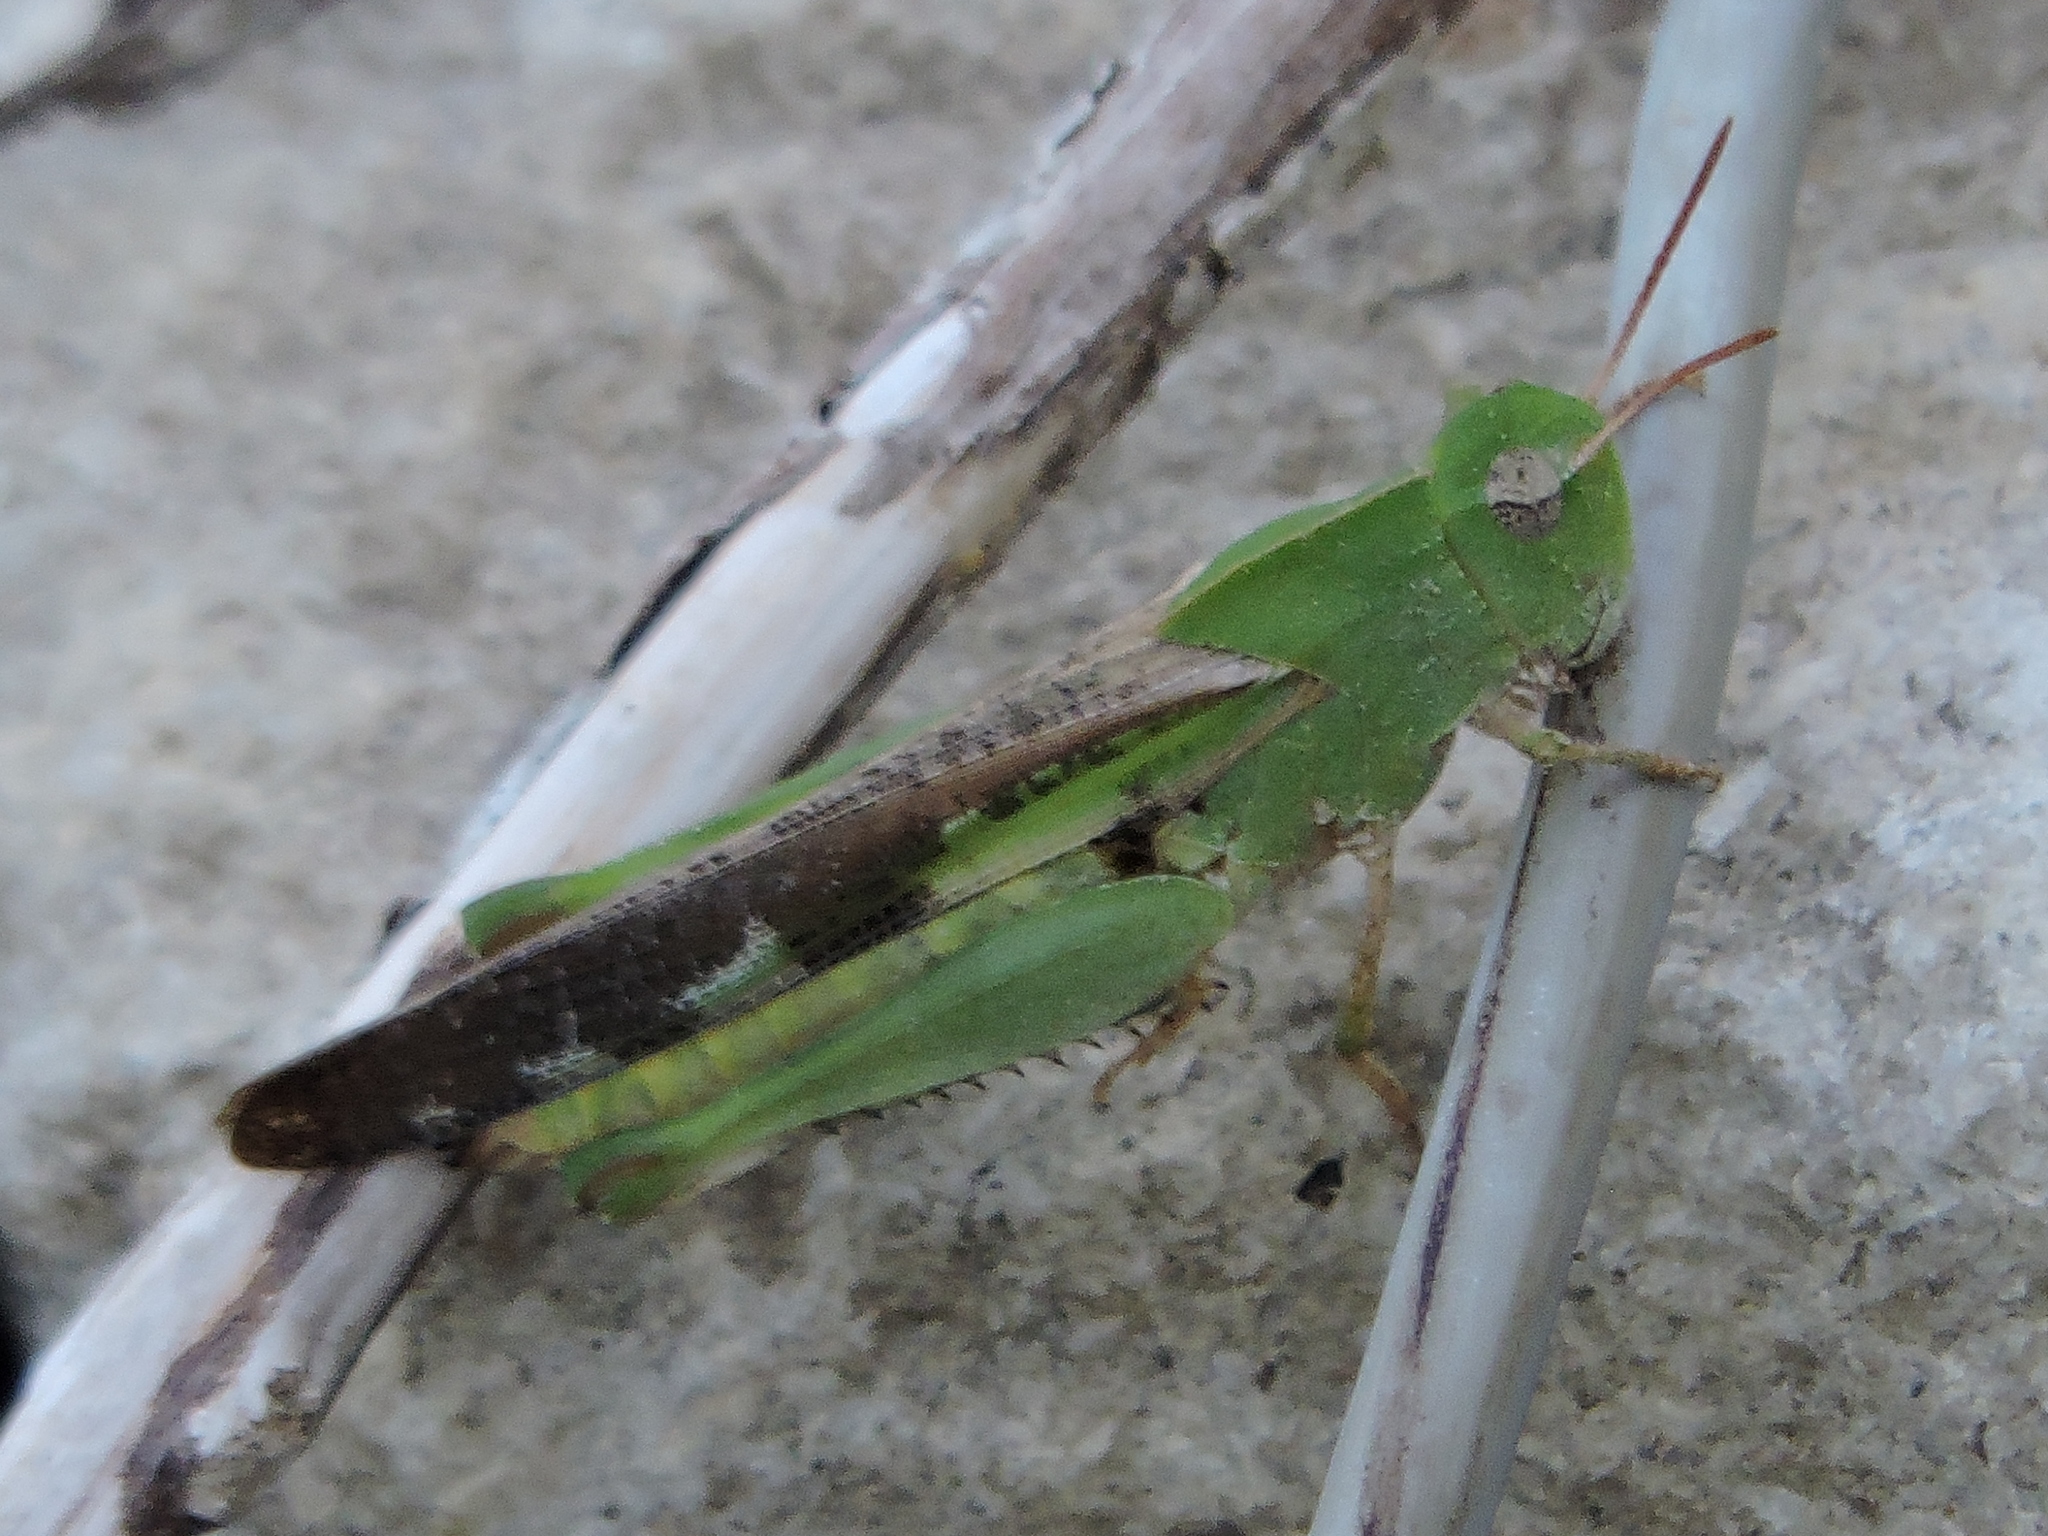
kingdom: Animalia
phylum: Arthropoda
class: Insecta
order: Orthoptera
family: Acrididae
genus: Chortophaga
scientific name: Chortophaga viridifasciata
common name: Green-striped grasshopper
